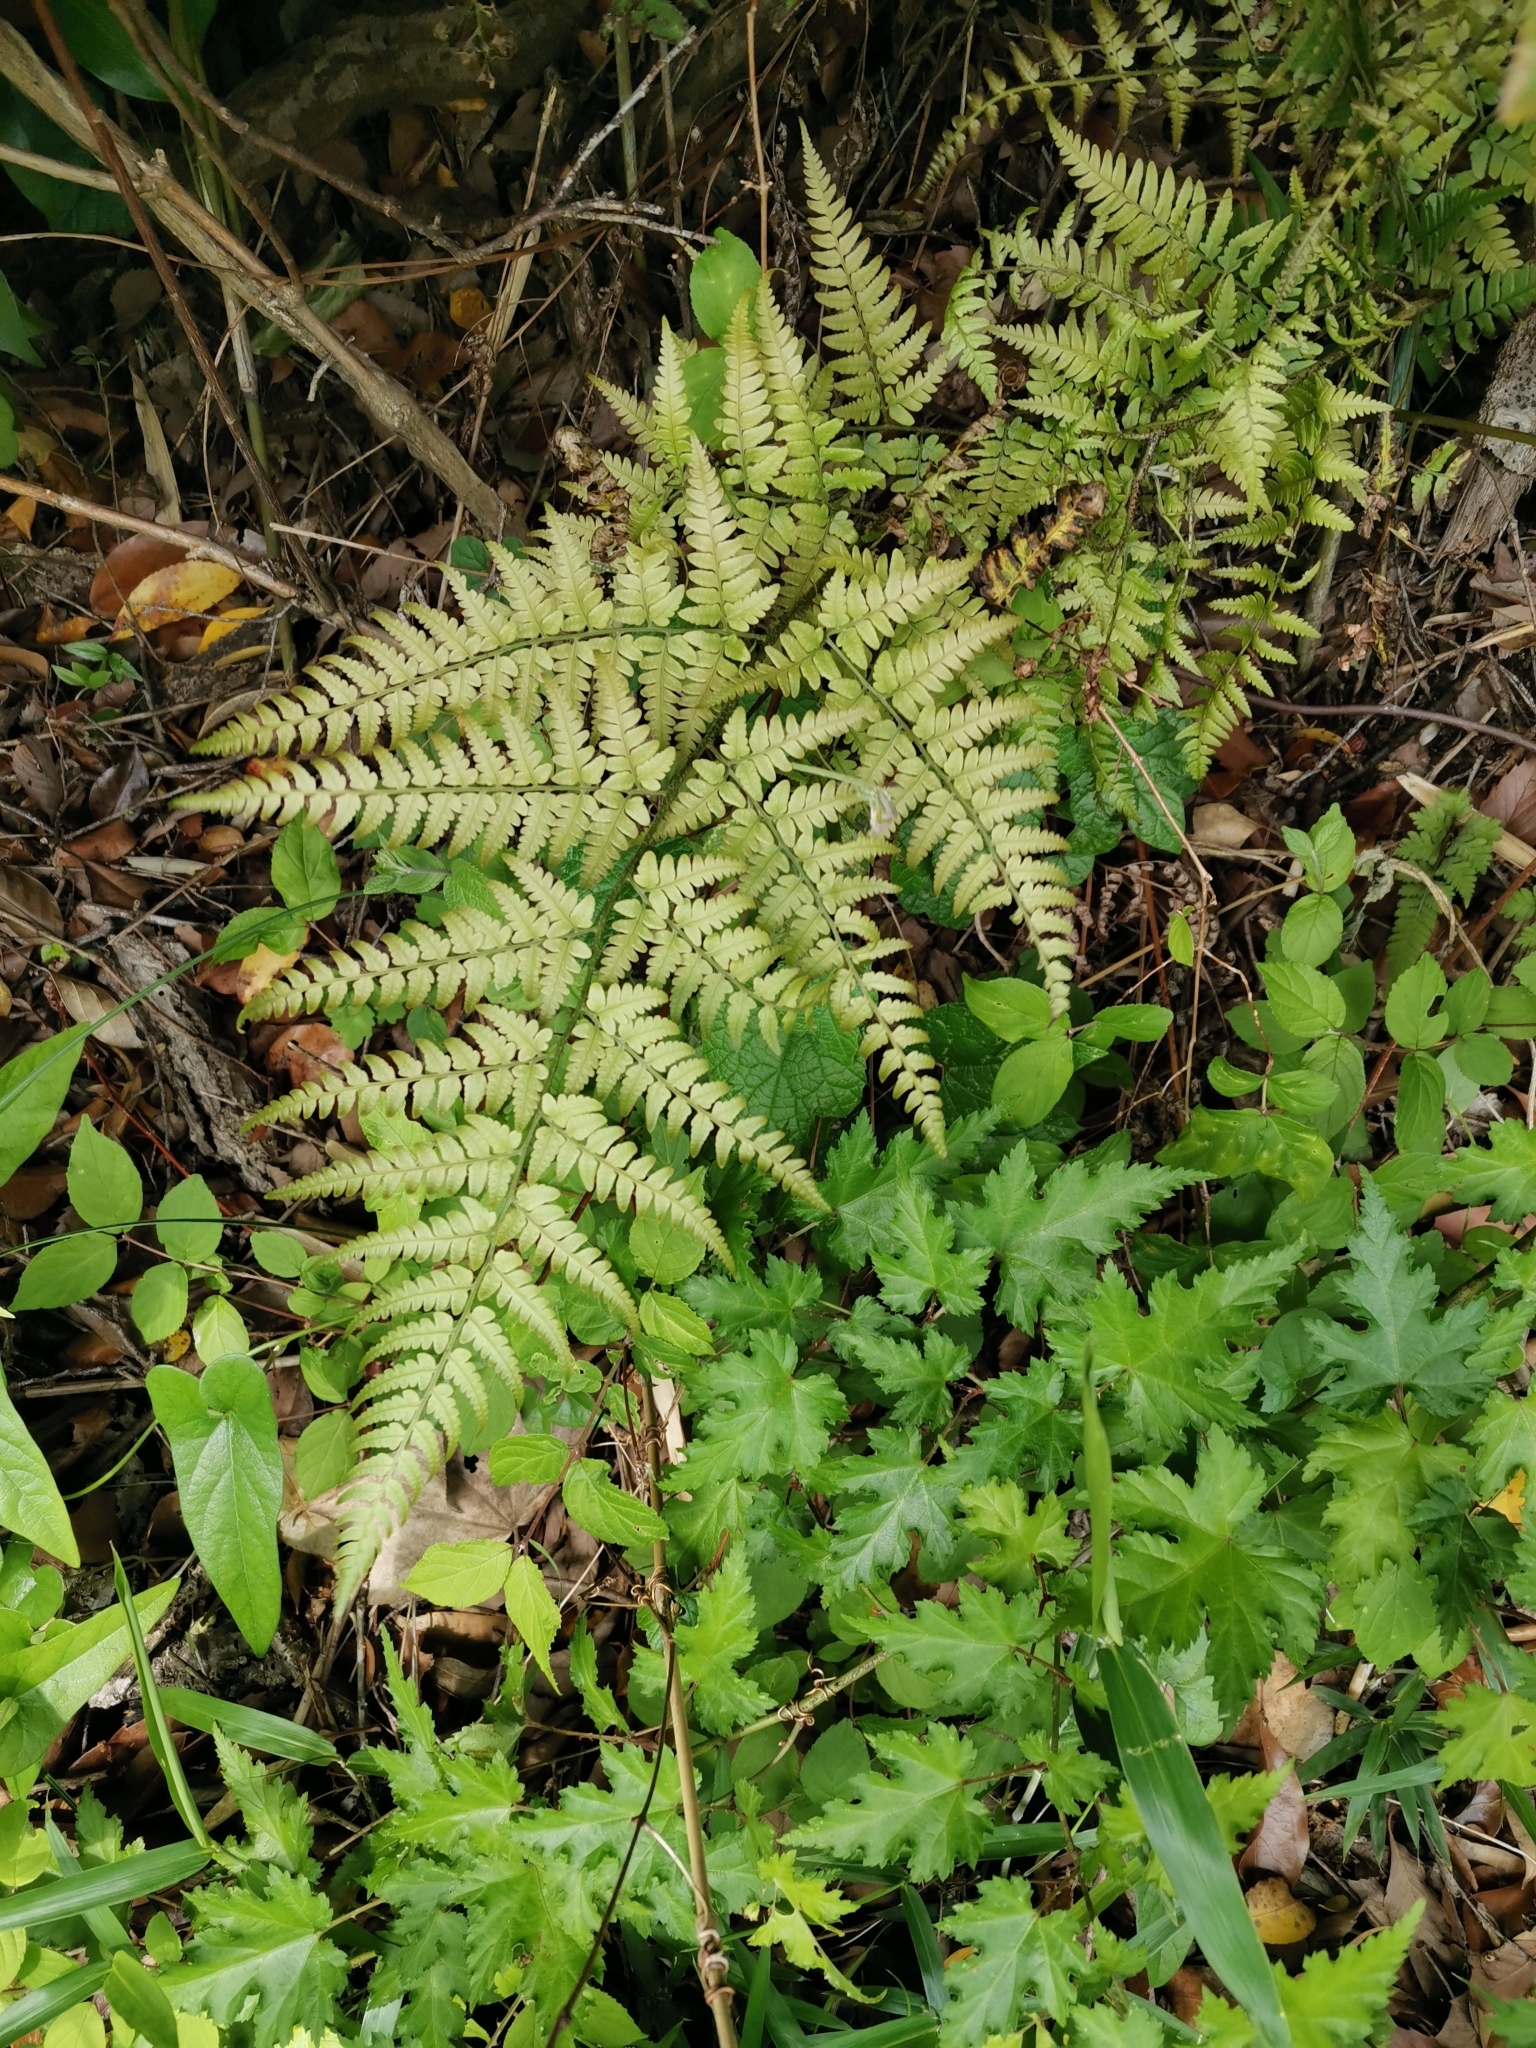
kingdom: Plantae
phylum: Tracheophyta
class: Polypodiopsida
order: Polypodiales
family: Dryopteridaceae
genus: Dryopteris
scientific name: Dryopteris sacrosancta
